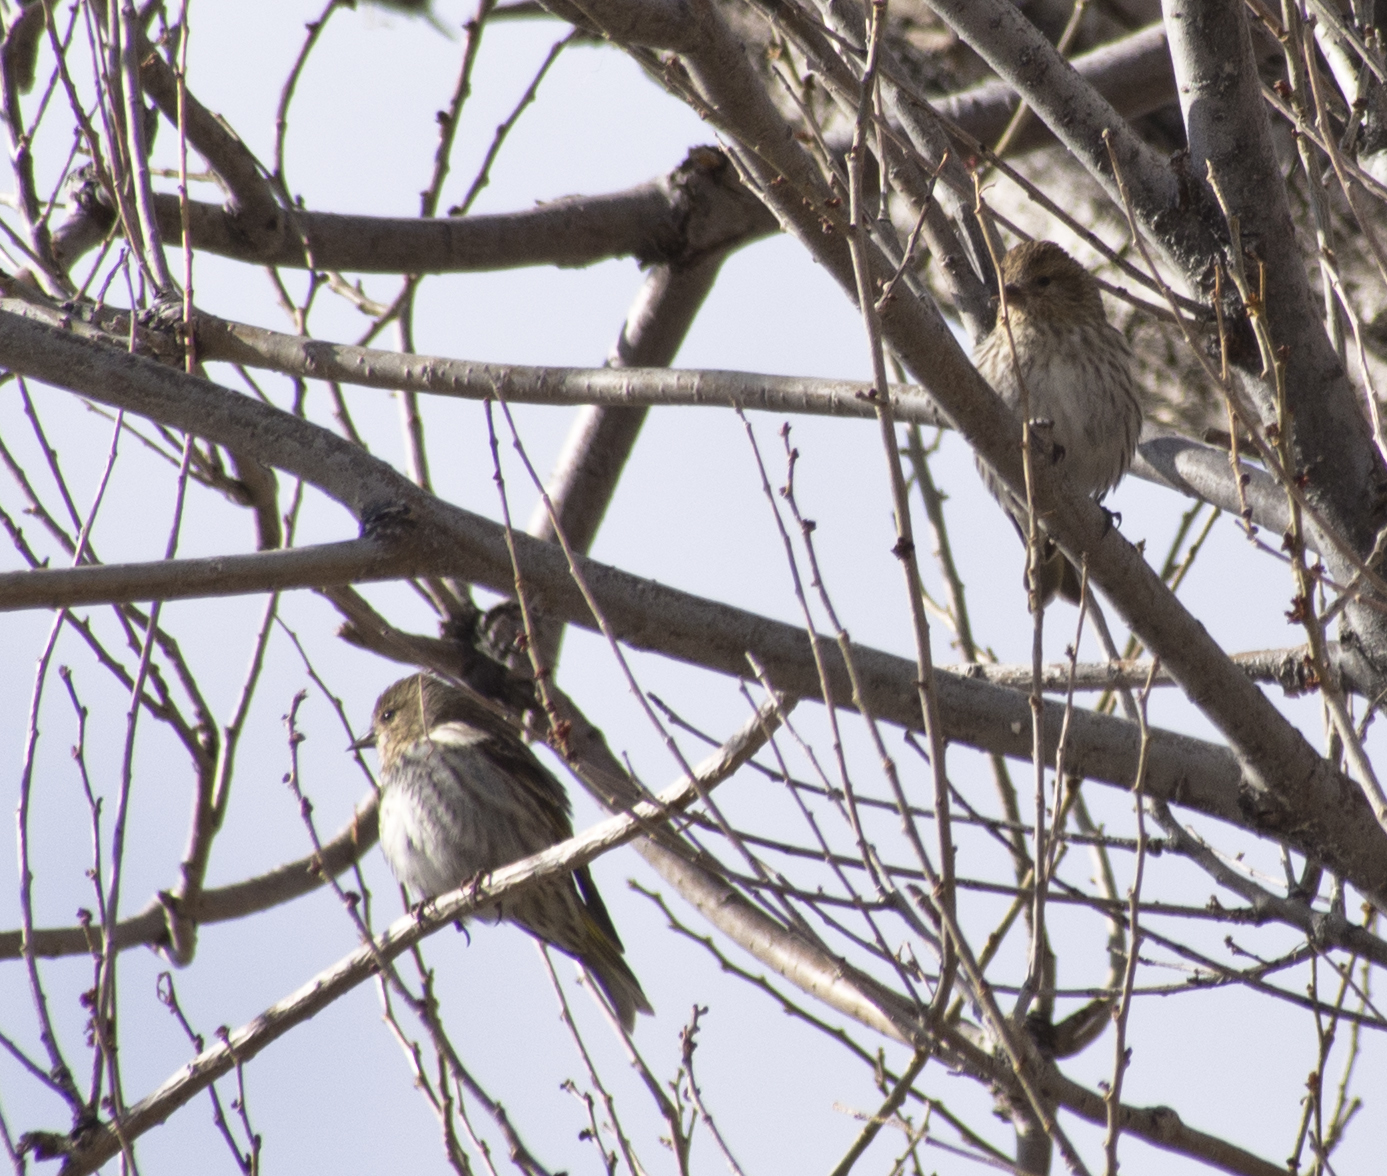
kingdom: Animalia
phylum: Chordata
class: Aves
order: Passeriformes
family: Fringillidae
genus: Spinus
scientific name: Spinus pinus
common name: Pine siskin
